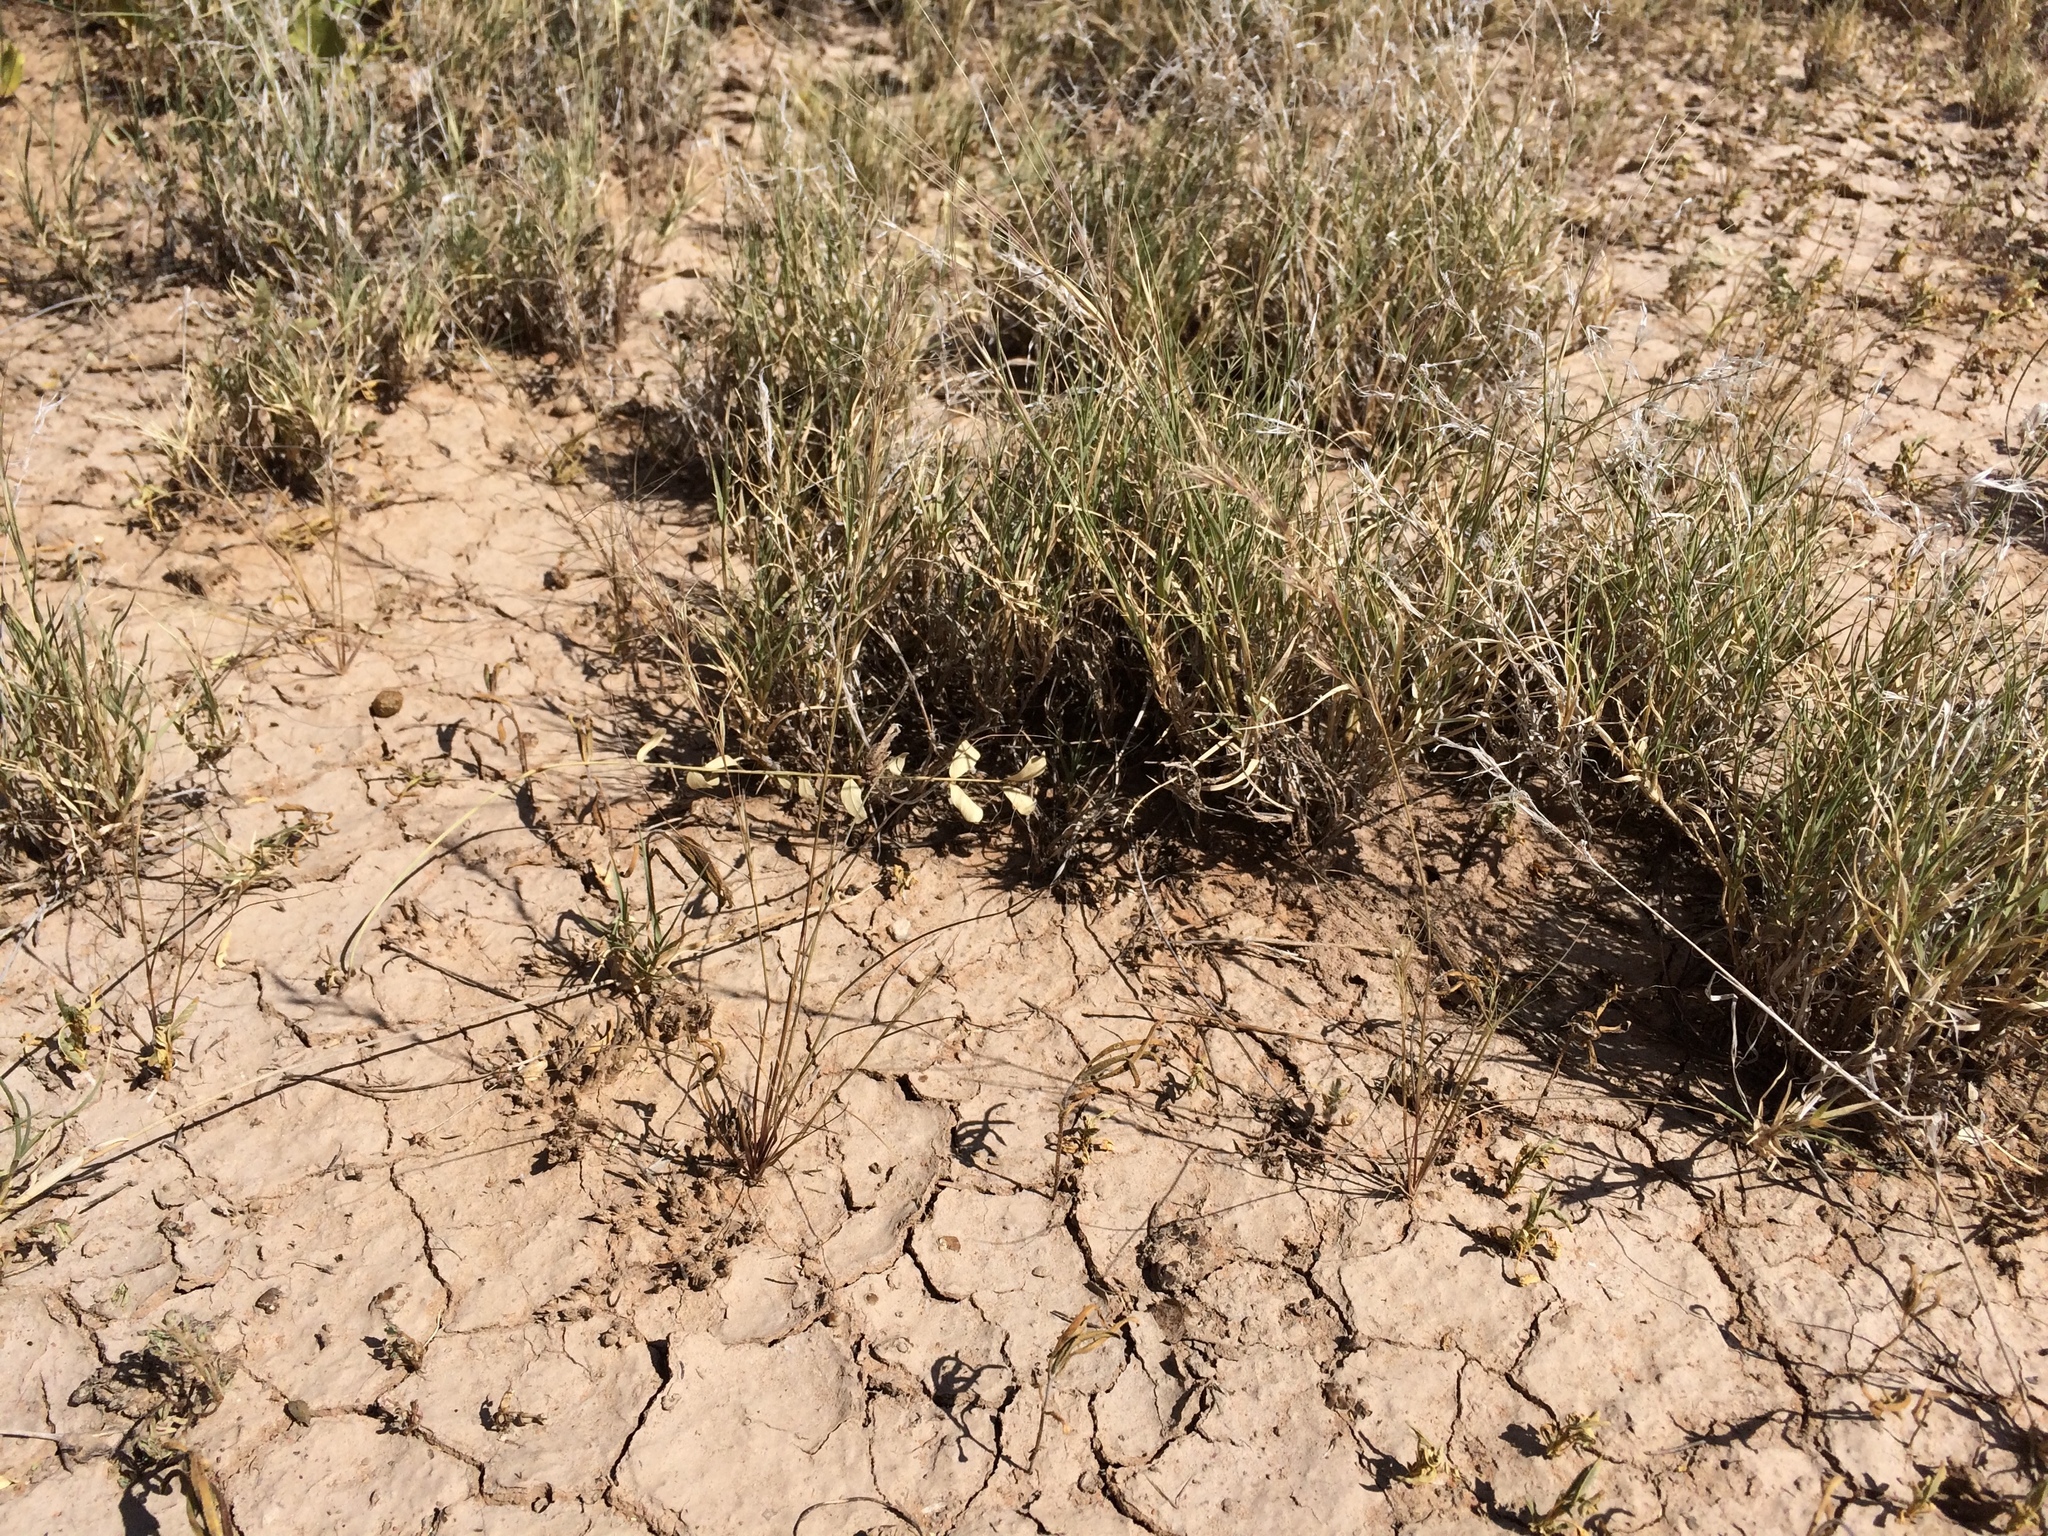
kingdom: Plantae
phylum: Tracheophyta
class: Liliopsida
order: Poales
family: Poaceae
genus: Aristida
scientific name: Aristida adscensionis
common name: Sixweeks threeawn
